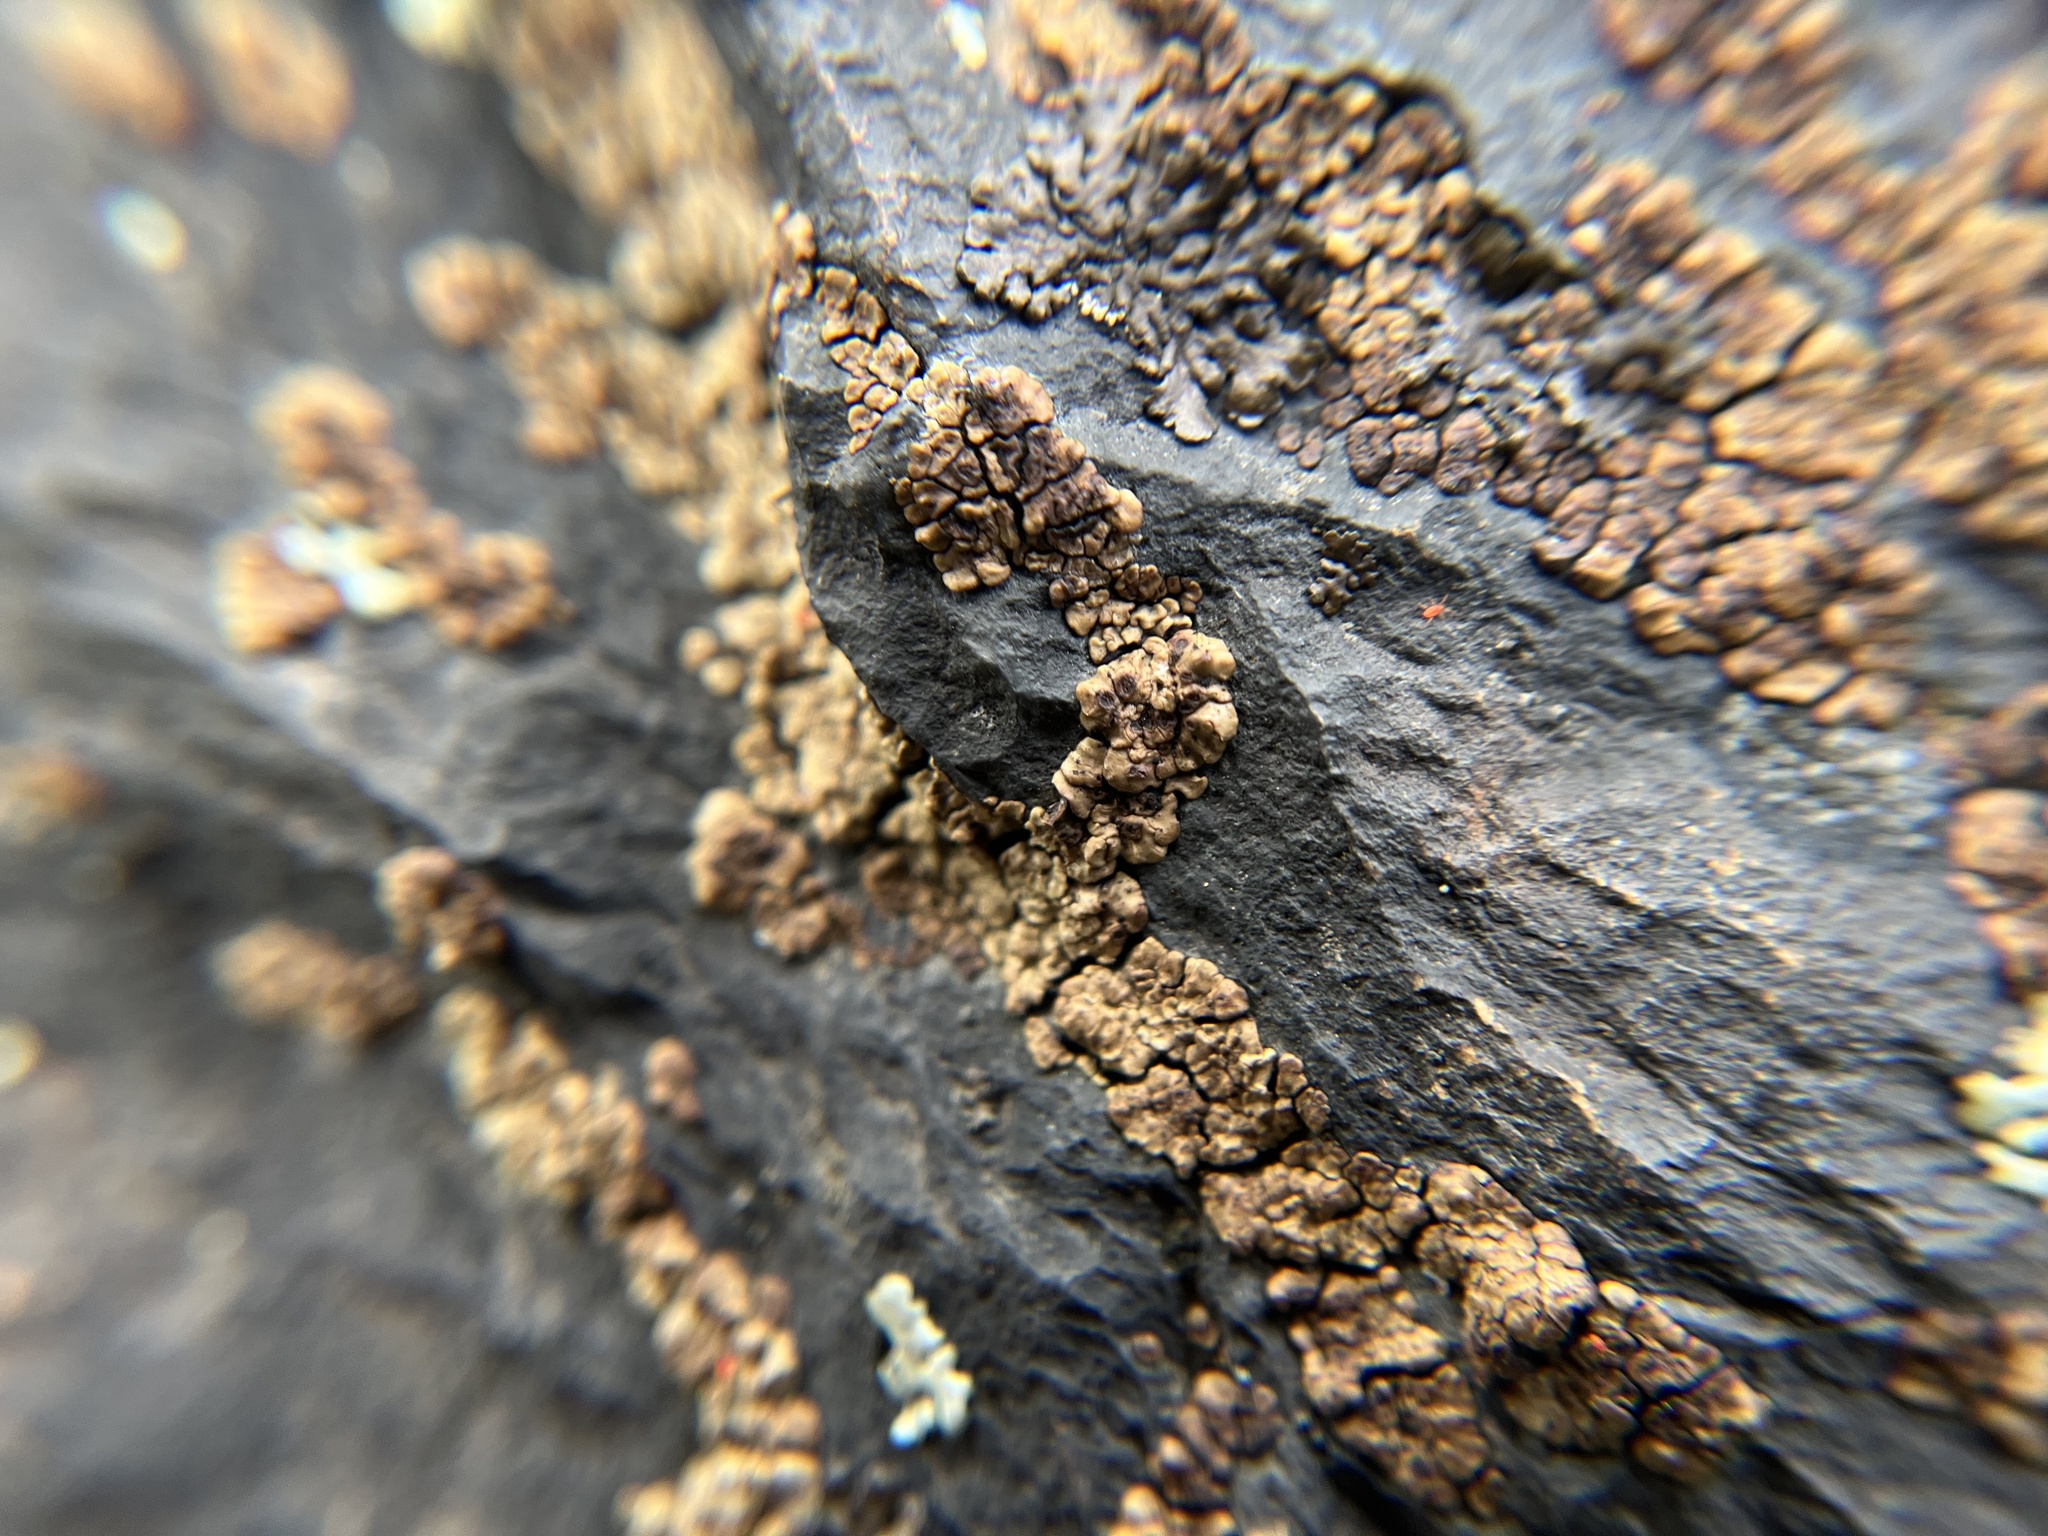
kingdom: Fungi
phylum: Ascomycota
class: Lecanoromycetes
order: Acarosporales
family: Acarosporaceae
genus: Acarospora
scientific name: Acarospora fuscata
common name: Brown cobblestone lichen
